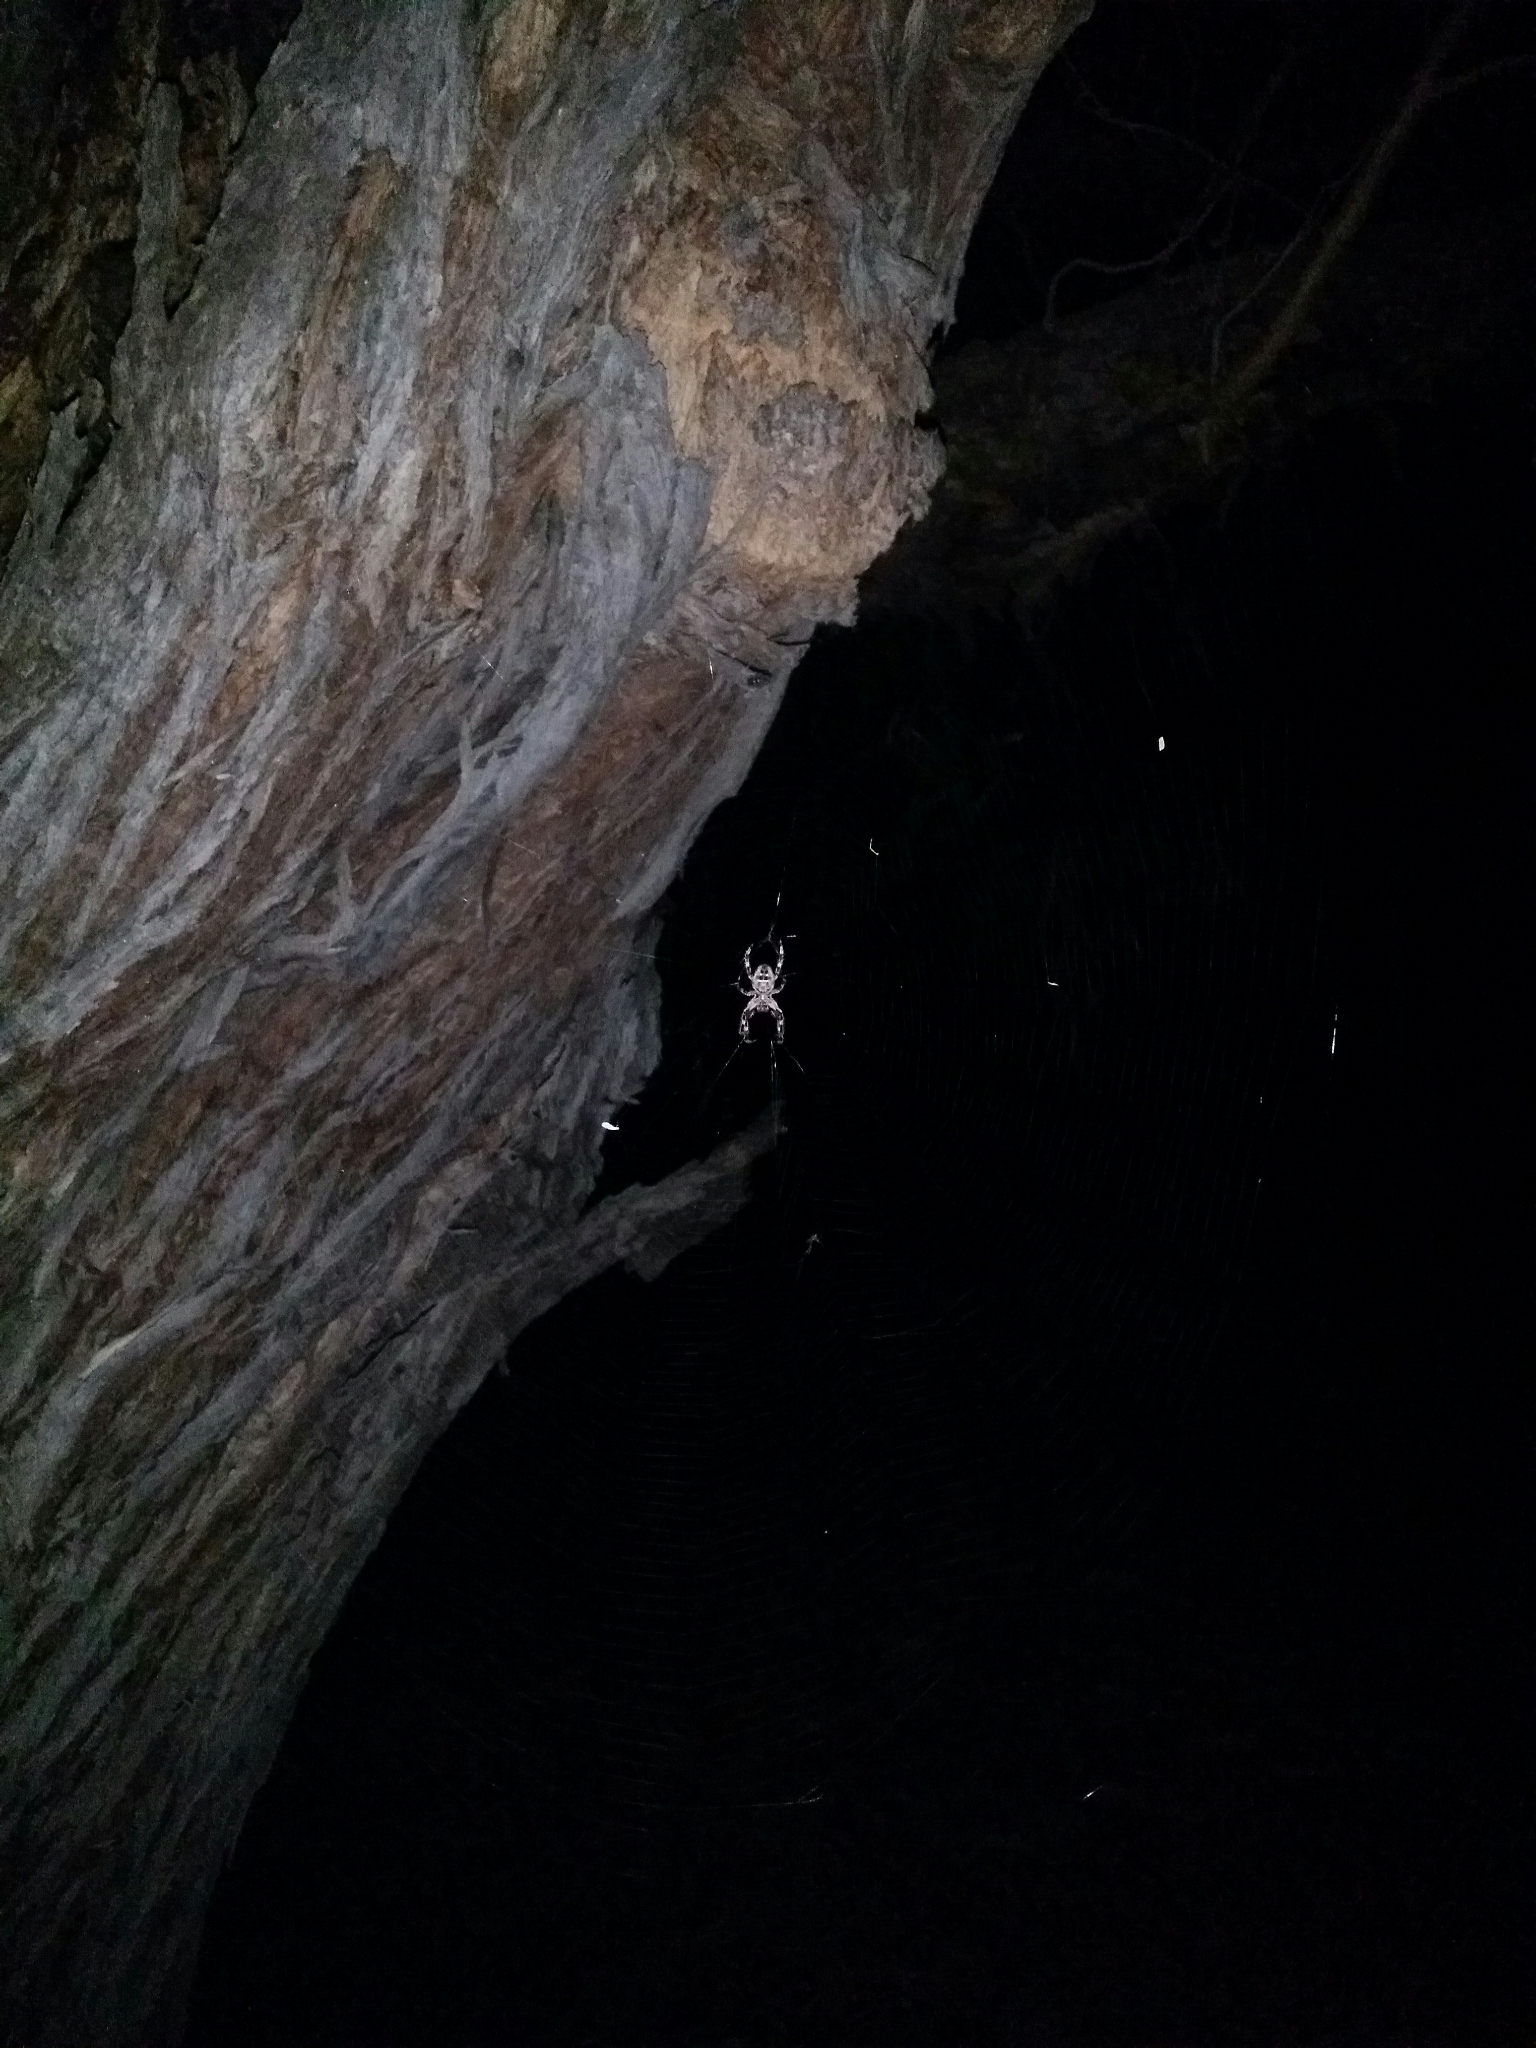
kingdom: Animalia
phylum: Arthropoda
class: Arachnida
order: Araneae
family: Araneidae
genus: Hortophora
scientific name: Hortophora biapicata
